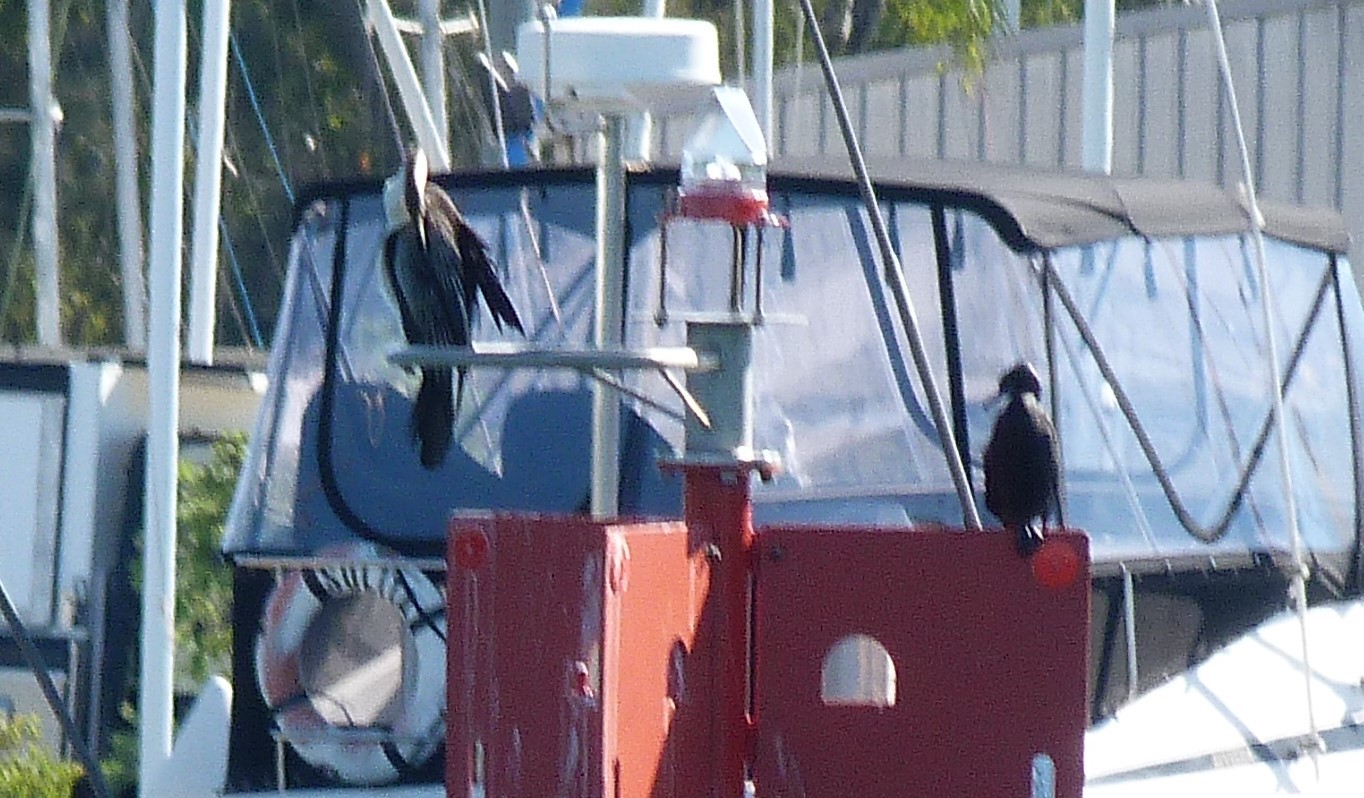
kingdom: Animalia
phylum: Chordata
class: Aves
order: Suliformes
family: Phalacrocoracidae
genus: Phalacrocorax
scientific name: Phalacrocorax sulcirostris
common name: Little black cormorant
